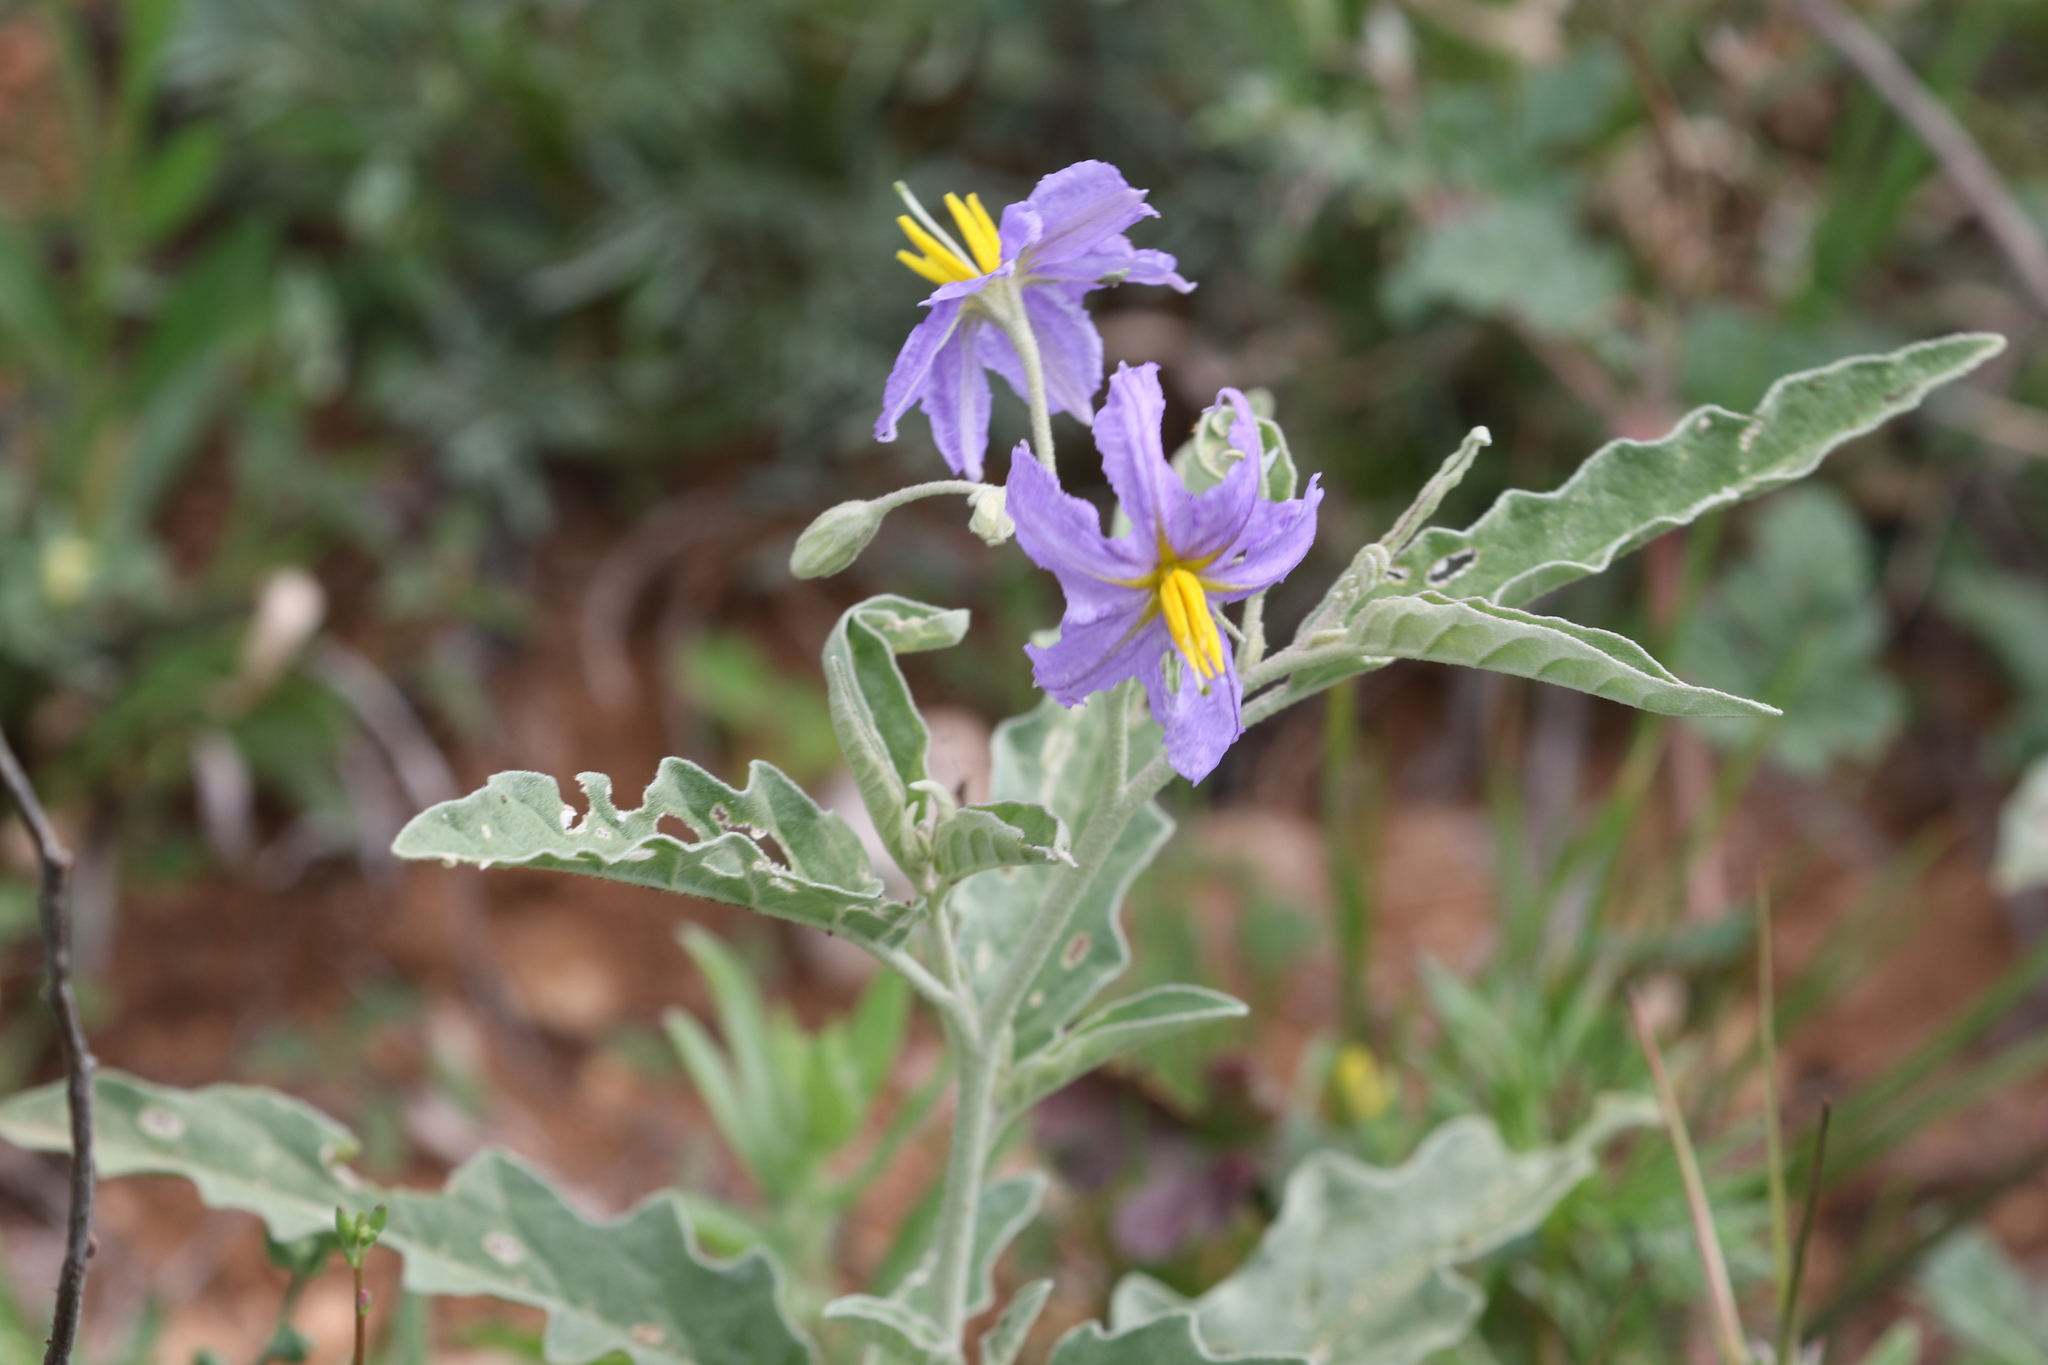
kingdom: Plantae
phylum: Tracheophyta
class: Magnoliopsida
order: Solanales
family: Solanaceae
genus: Solanum
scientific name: Solanum elaeagnifolium
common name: Silverleaf nightshade
